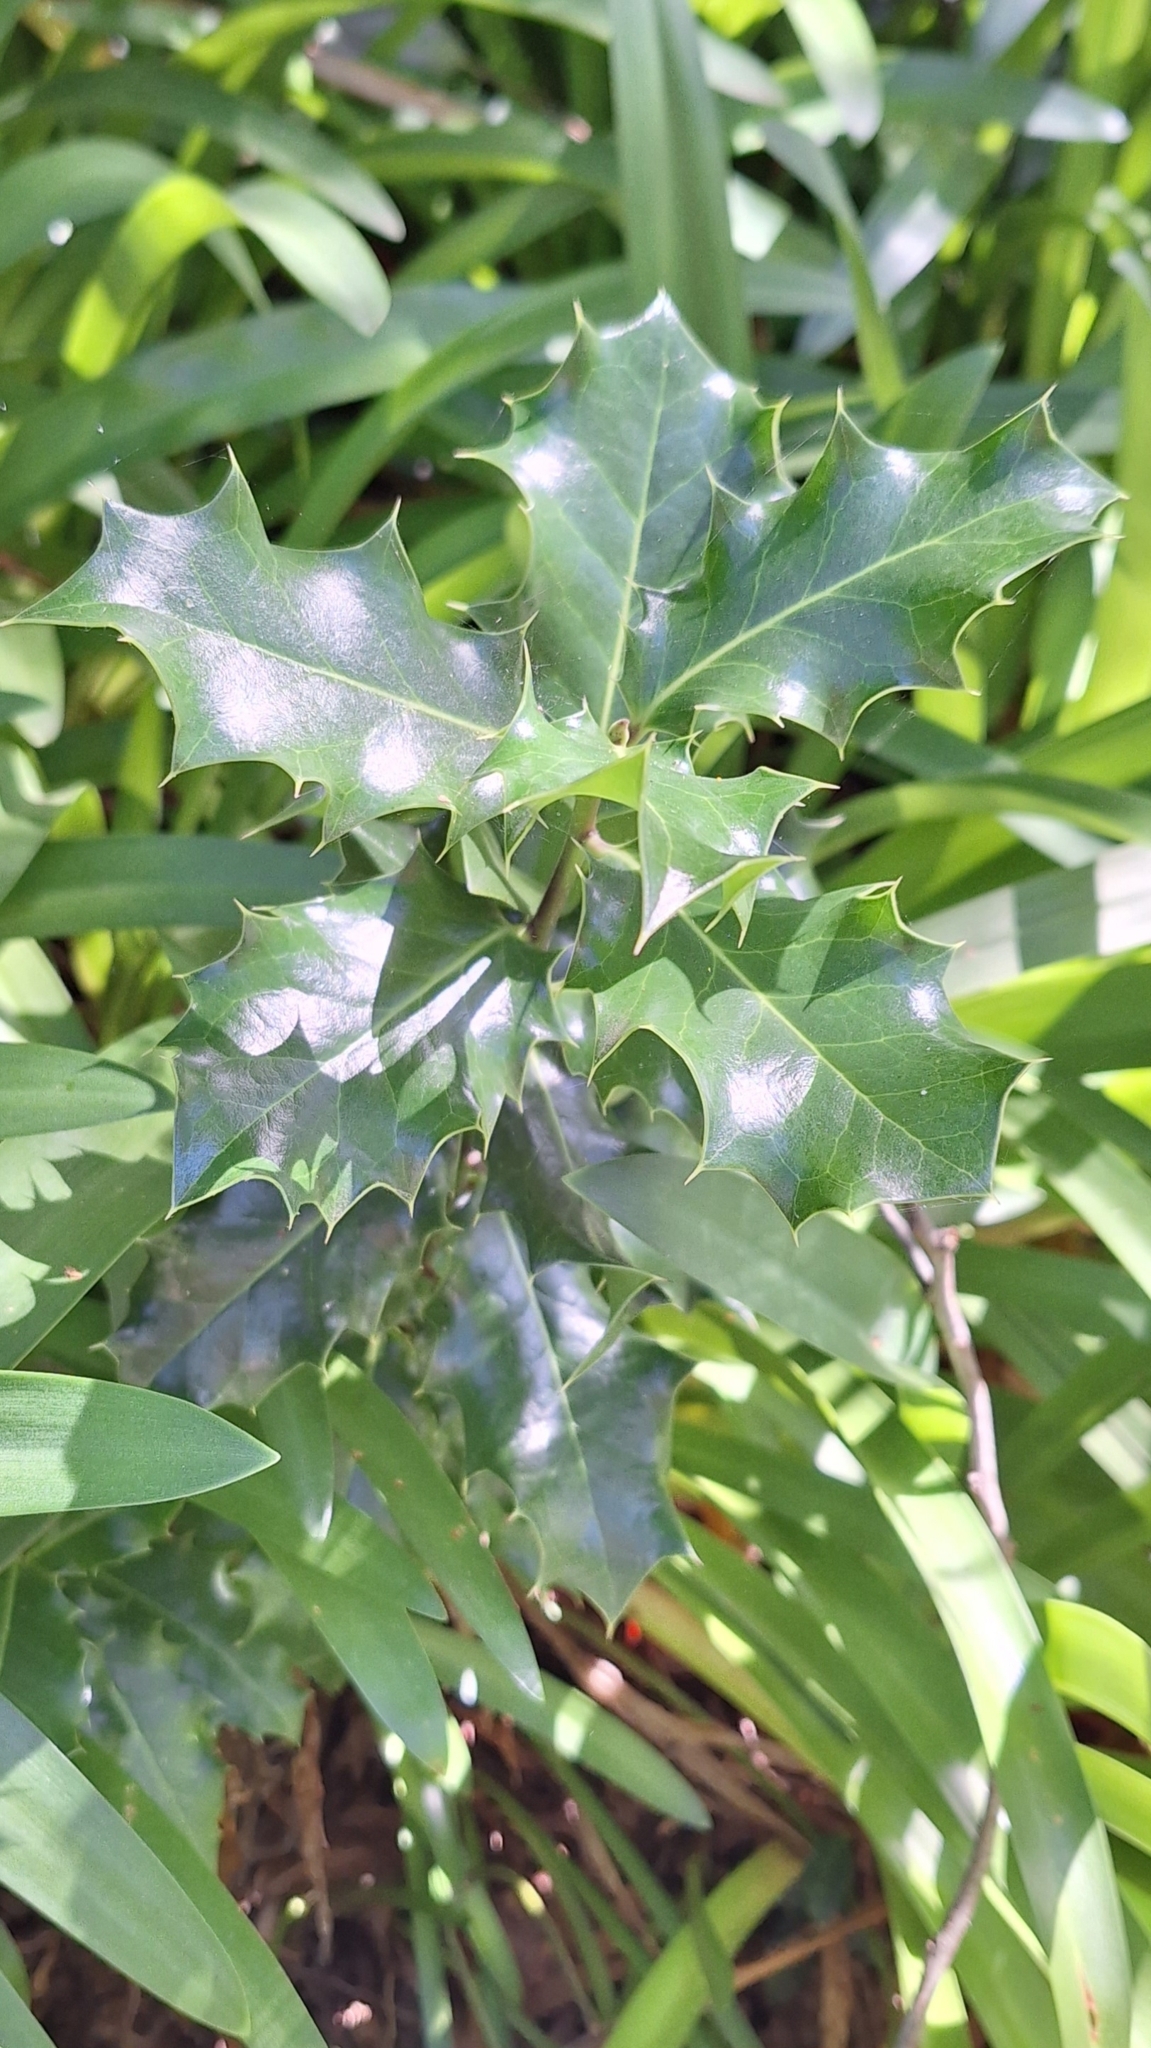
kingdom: Plantae
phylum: Tracheophyta
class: Magnoliopsida
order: Aquifoliales
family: Aquifoliaceae
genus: Ilex
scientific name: Ilex aquifolium
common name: English holly
